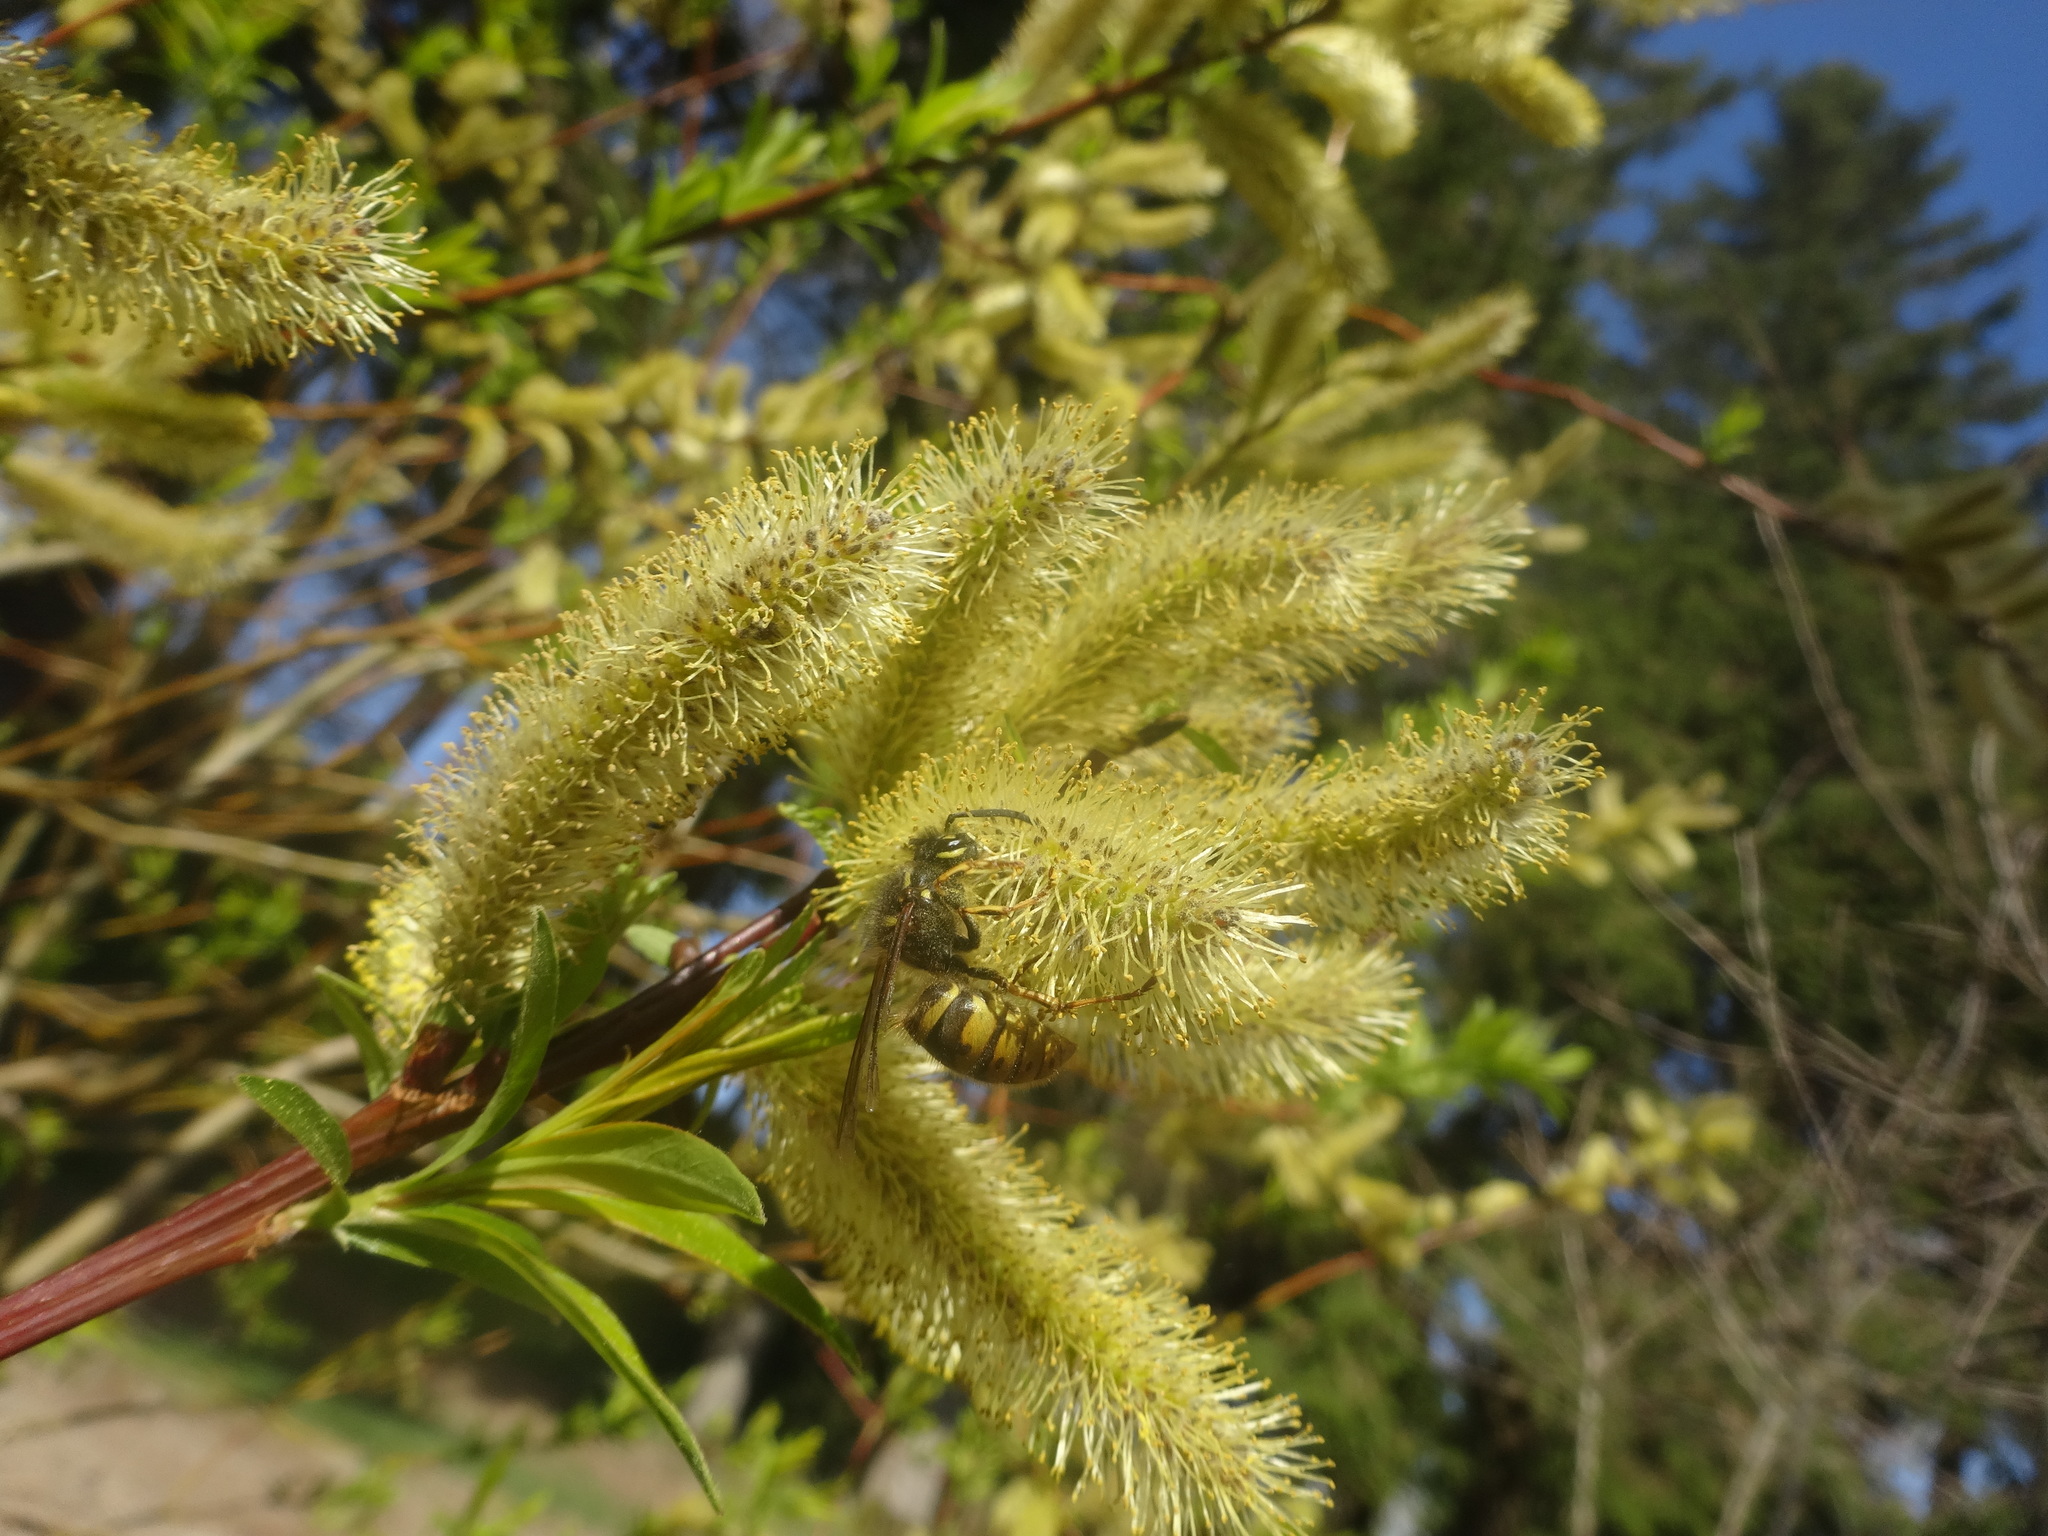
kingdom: Animalia
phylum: Arthropoda
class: Insecta
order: Hymenoptera
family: Vespidae
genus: Vespula
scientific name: Vespula vulgaris
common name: Common wasp
